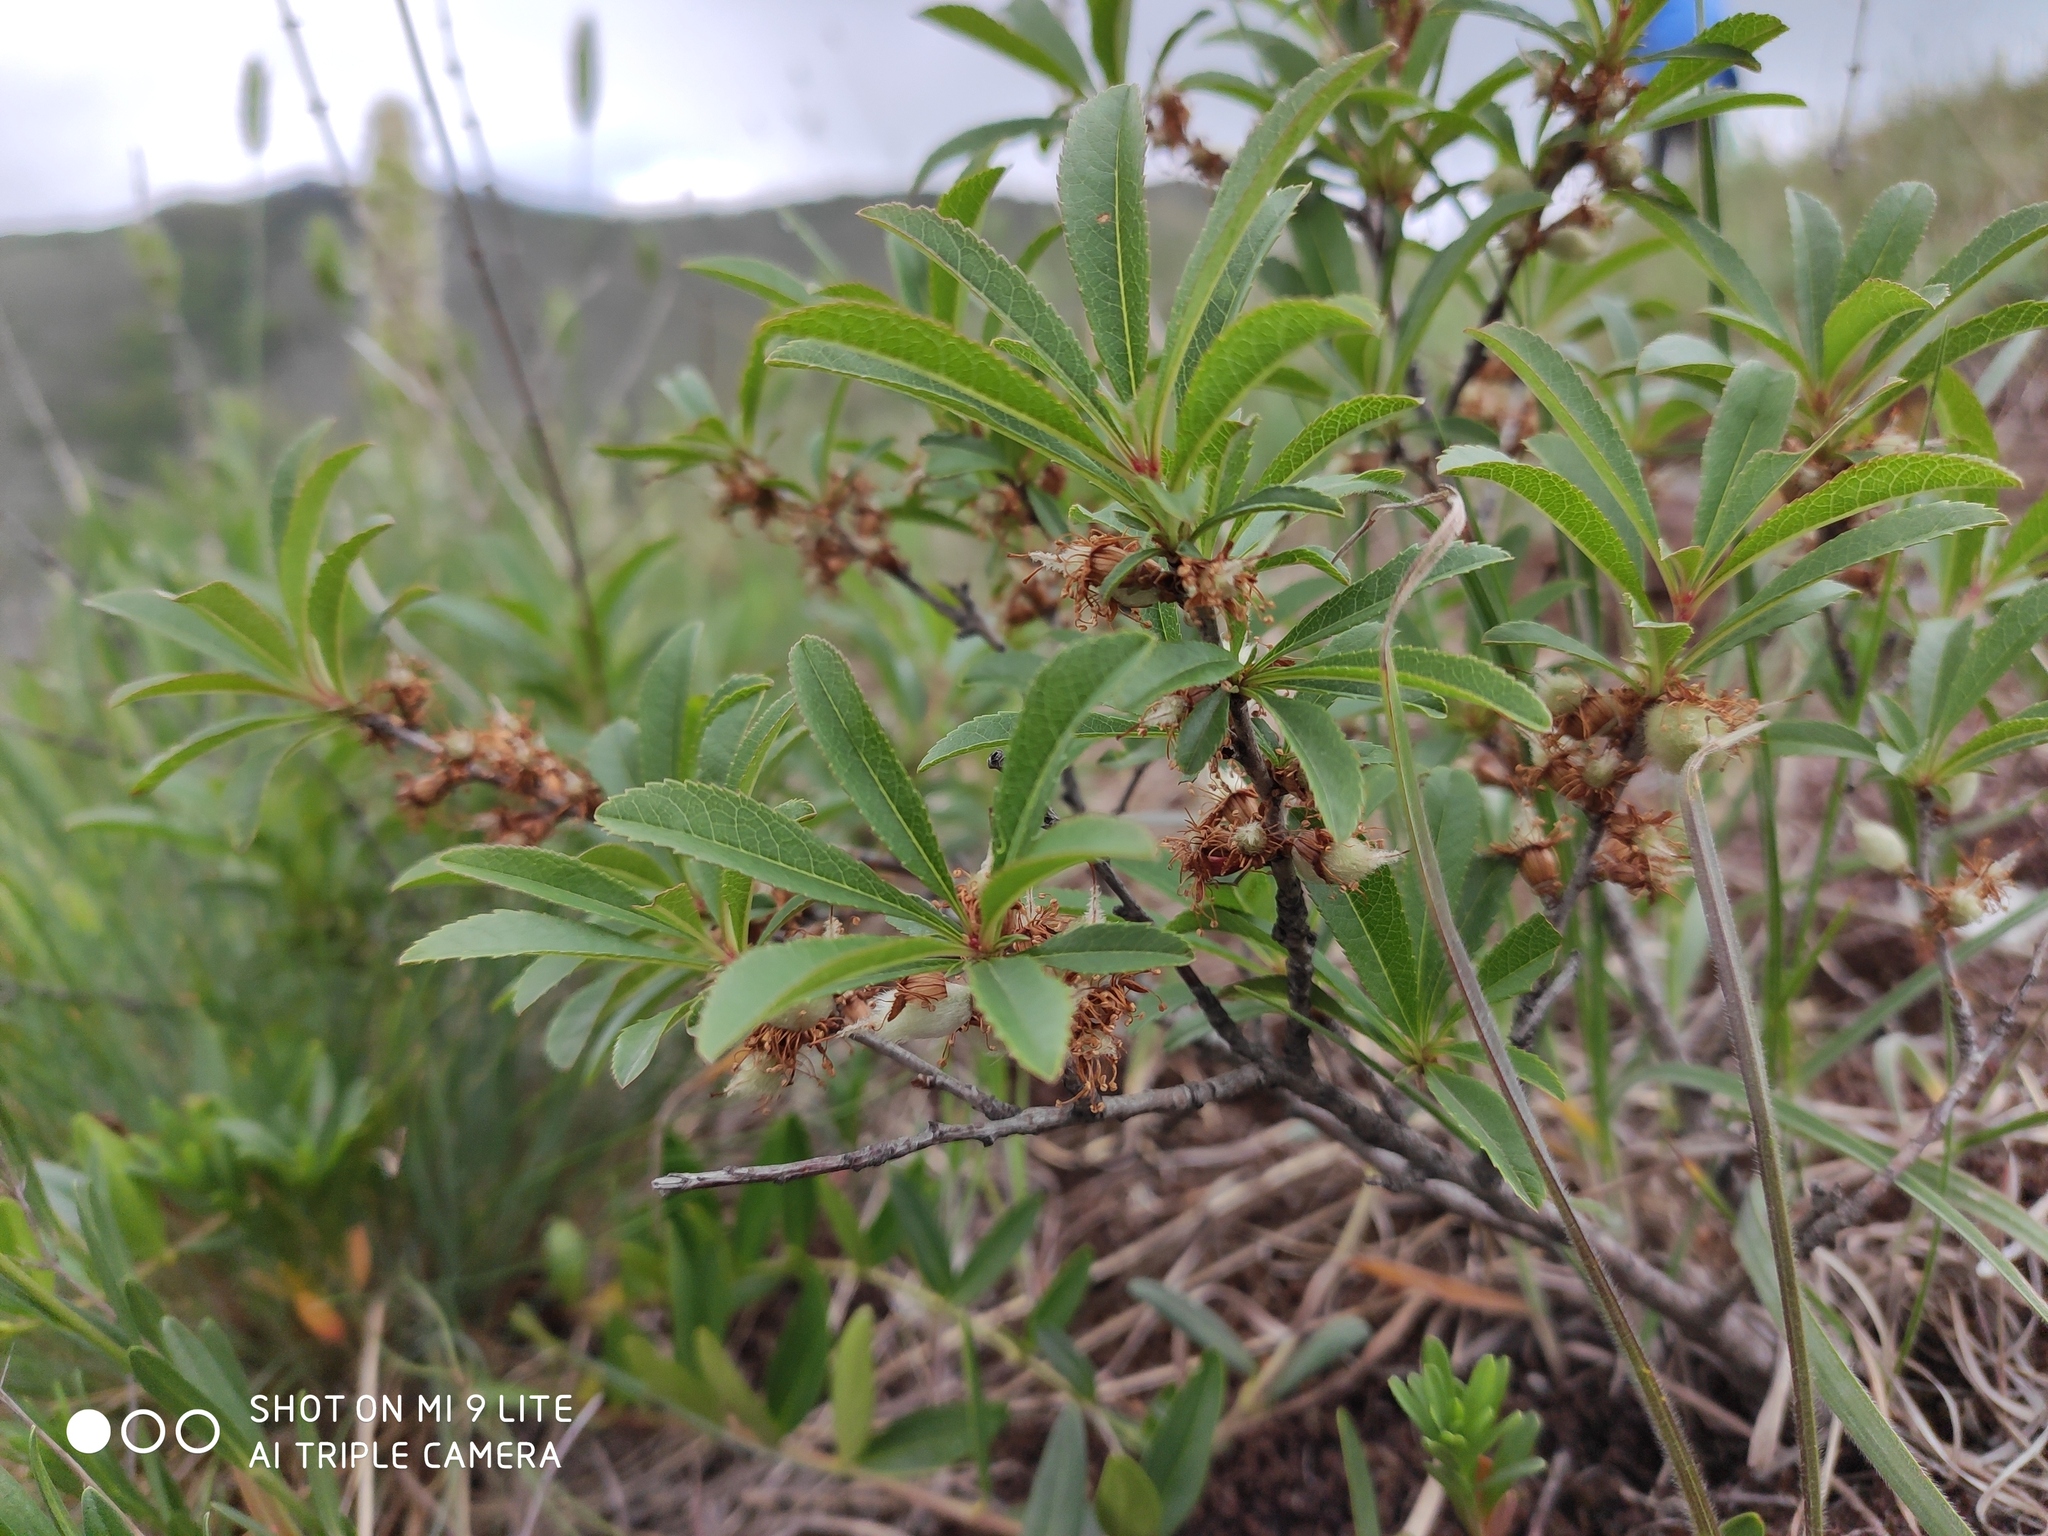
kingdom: Plantae
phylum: Tracheophyta
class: Magnoliopsida
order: Rosales
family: Rosaceae
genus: Prunus
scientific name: Prunus tenella
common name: Dwarf russian almond
